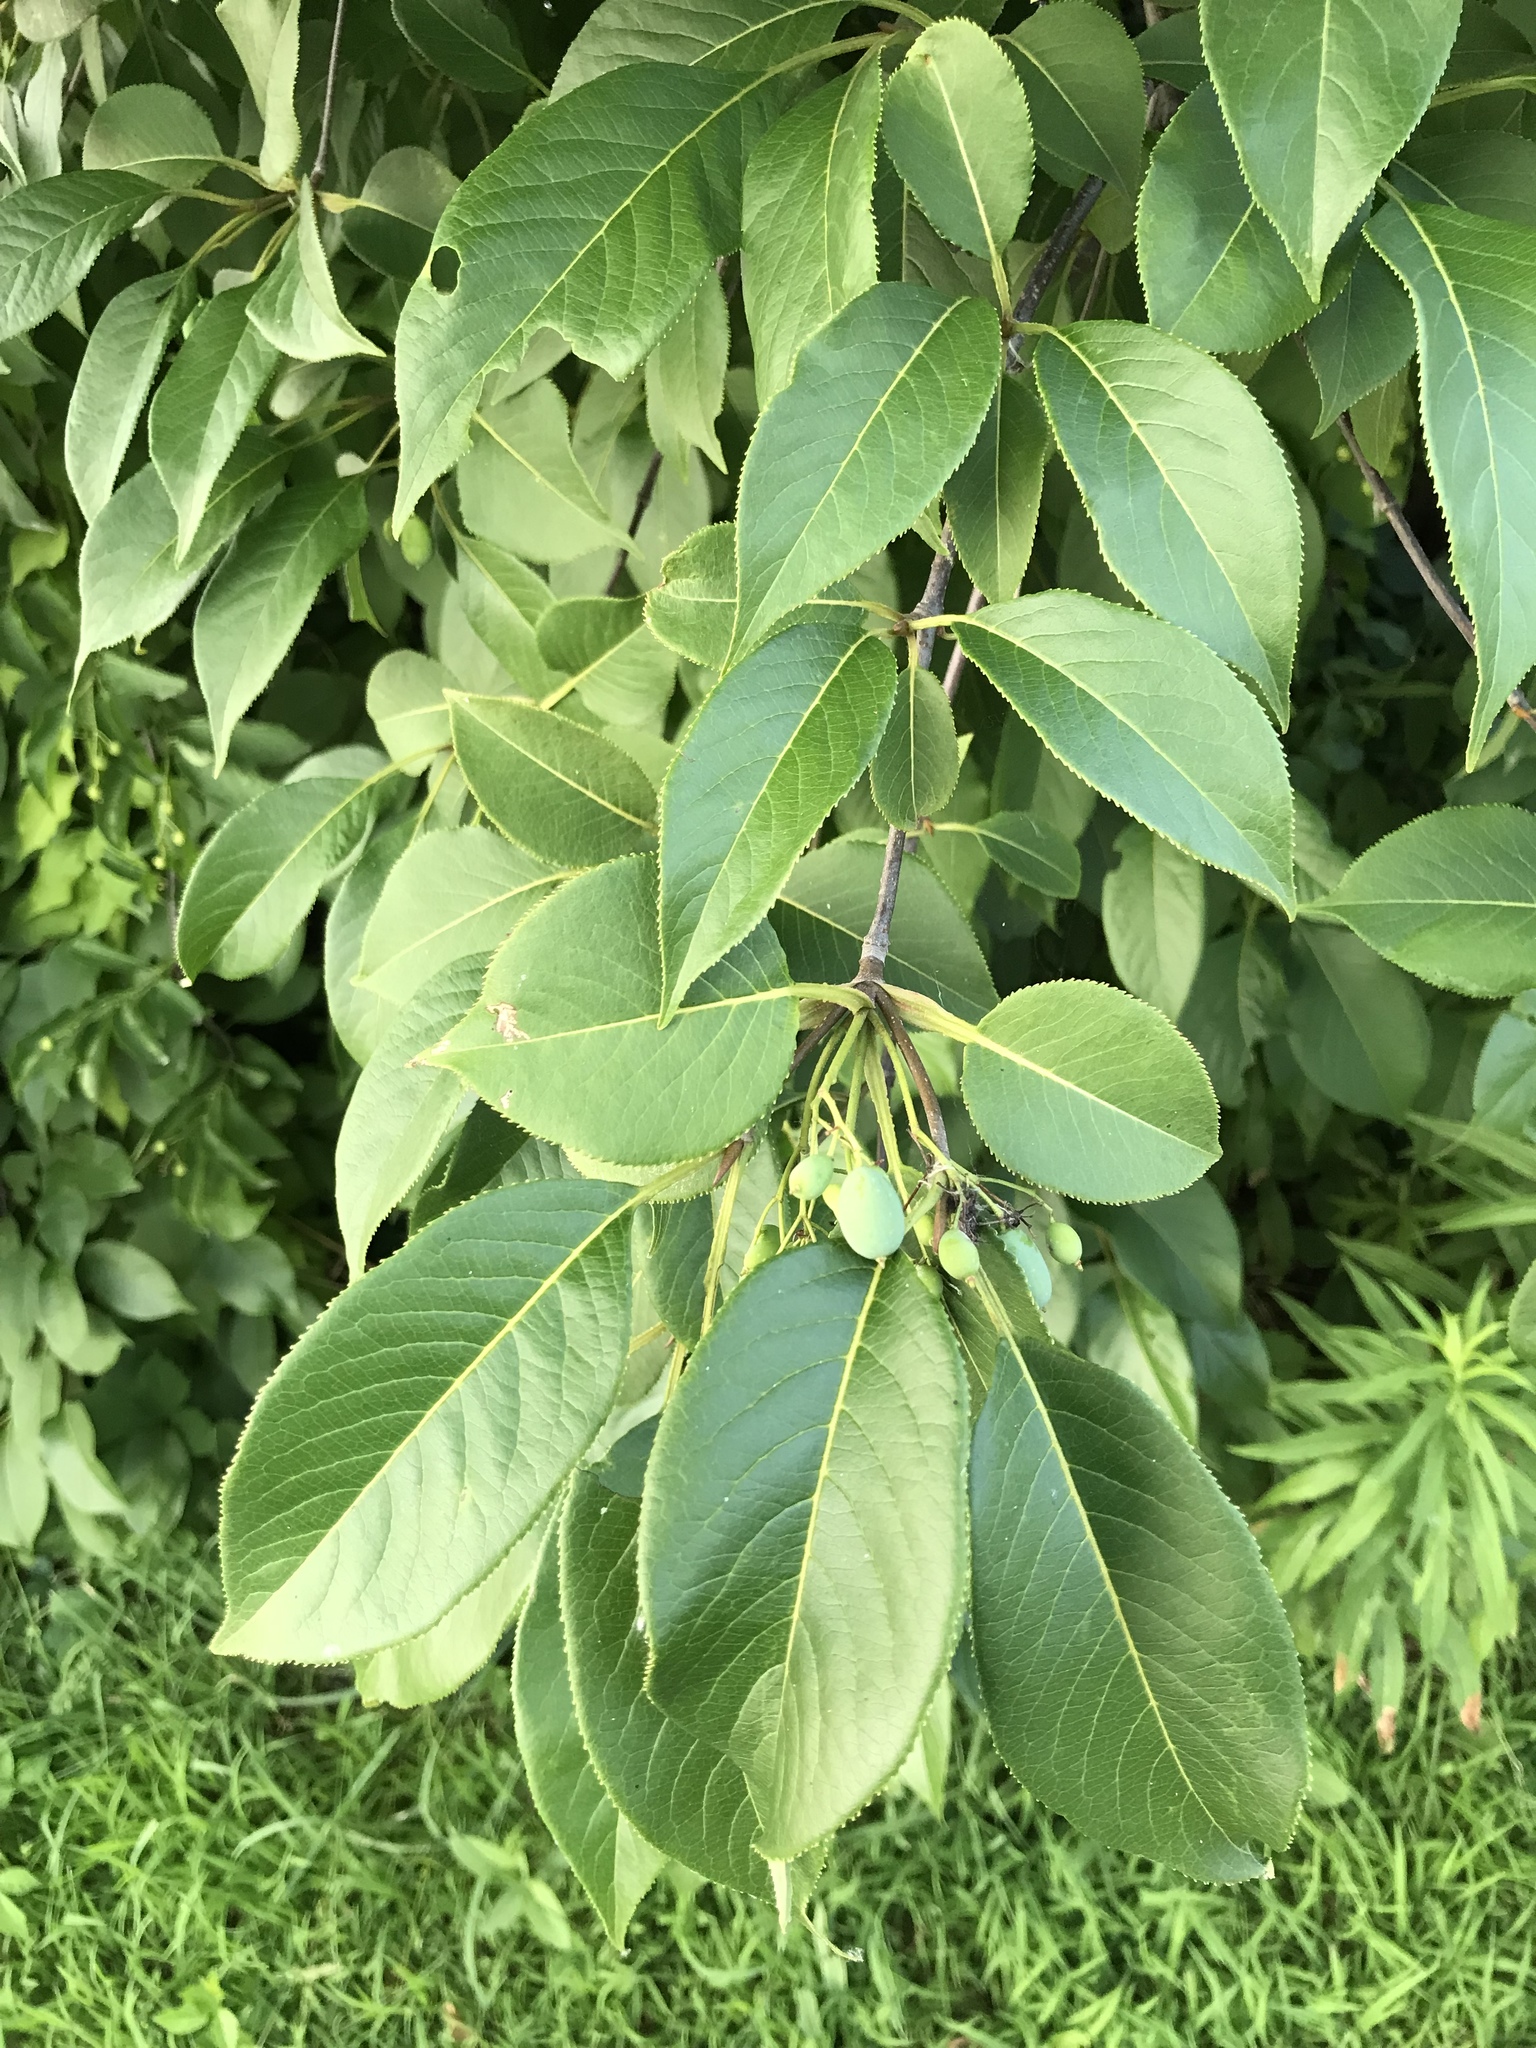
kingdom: Plantae
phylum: Tracheophyta
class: Magnoliopsida
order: Dipsacales
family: Viburnaceae
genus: Viburnum
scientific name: Viburnum lentago
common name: Black haw
